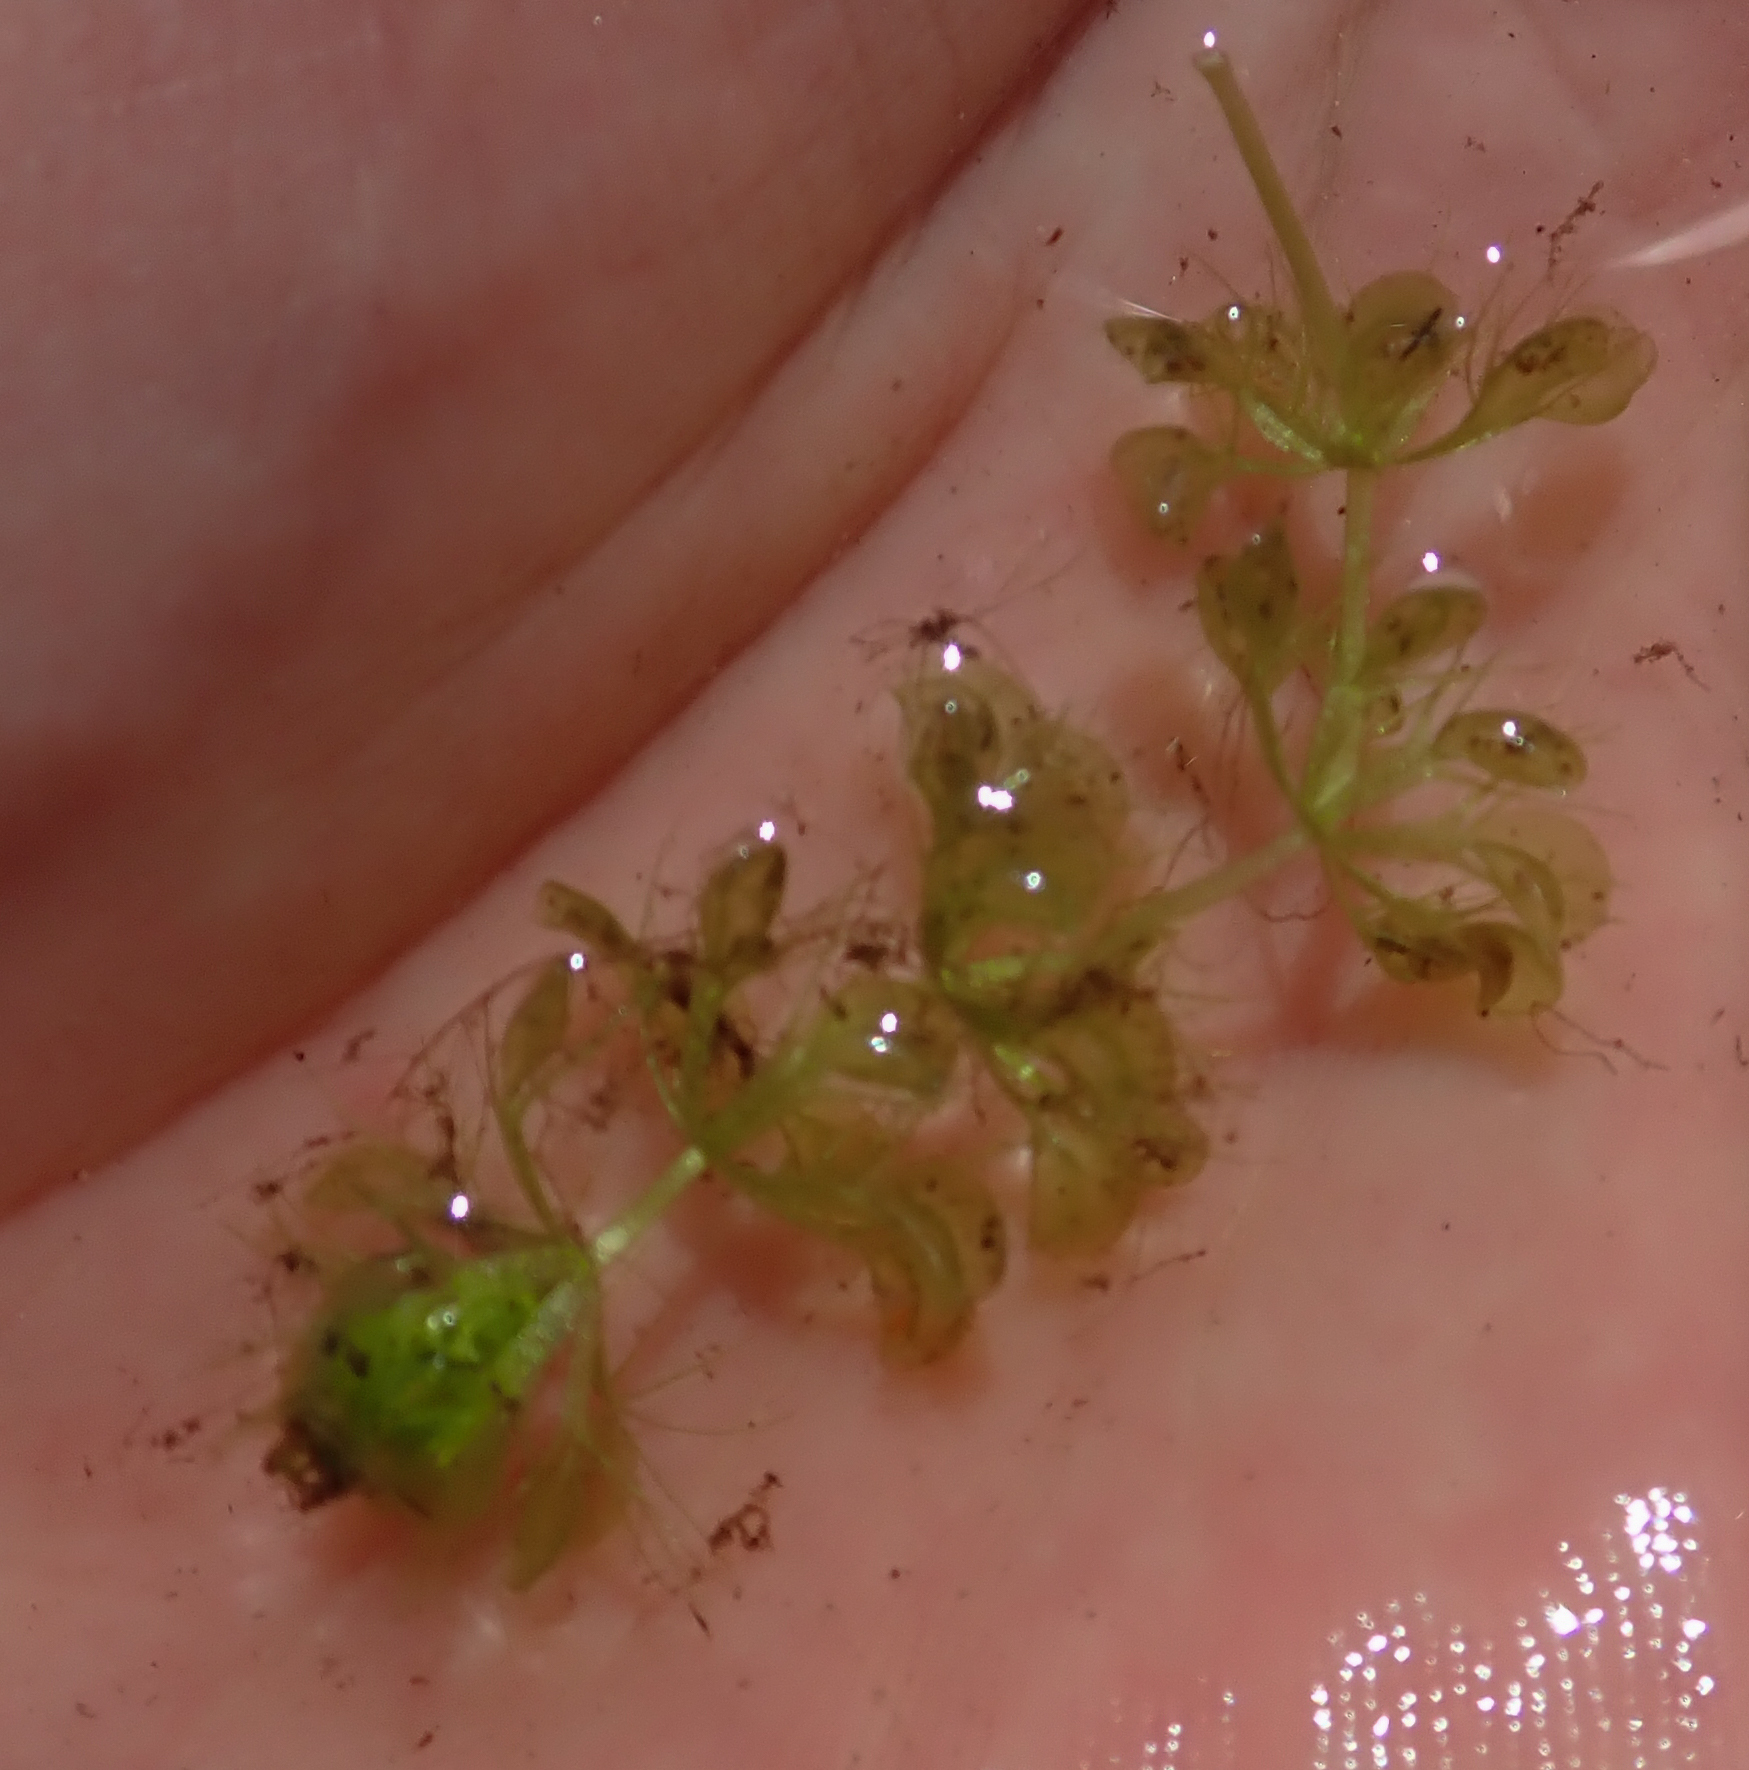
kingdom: Plantae
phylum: Tracheophyta
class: Magnoliopsida
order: Caryophyllales
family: Droseraceae
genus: Aldrovanda
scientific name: Aldrovanda vesiculosa
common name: Waterwheel plant
